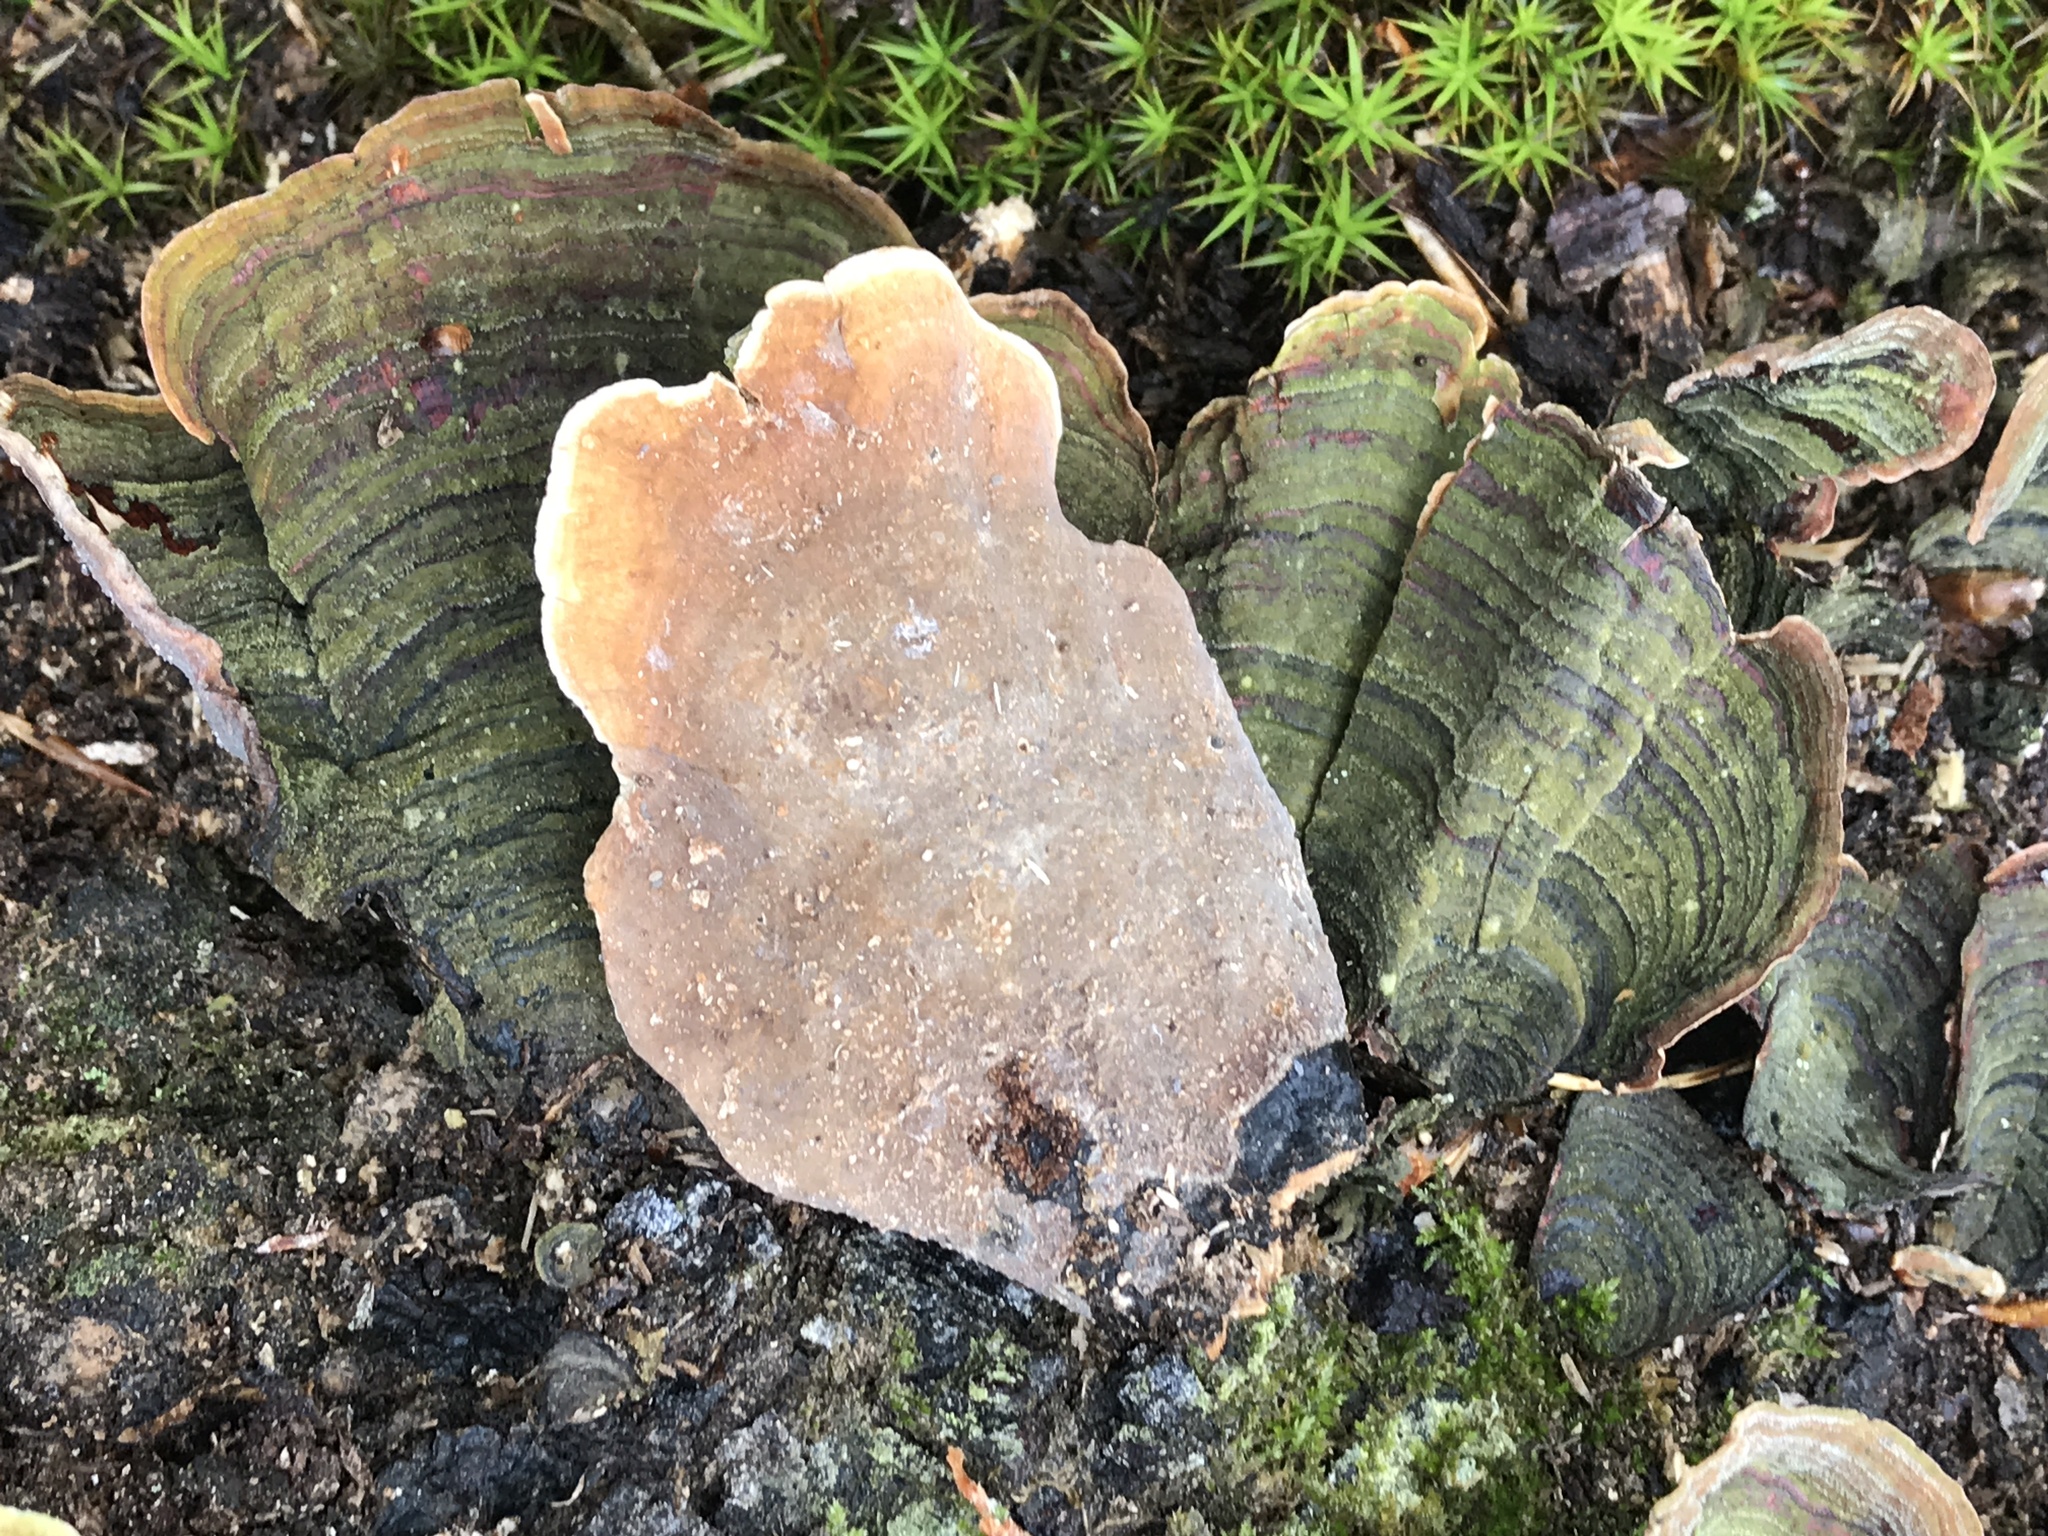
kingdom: Fungi
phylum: Basidiomycota
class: Agaricomycetes
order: Russulales
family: Stereaceae
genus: Stereum
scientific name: Stereum ostrea
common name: False turkeytail
